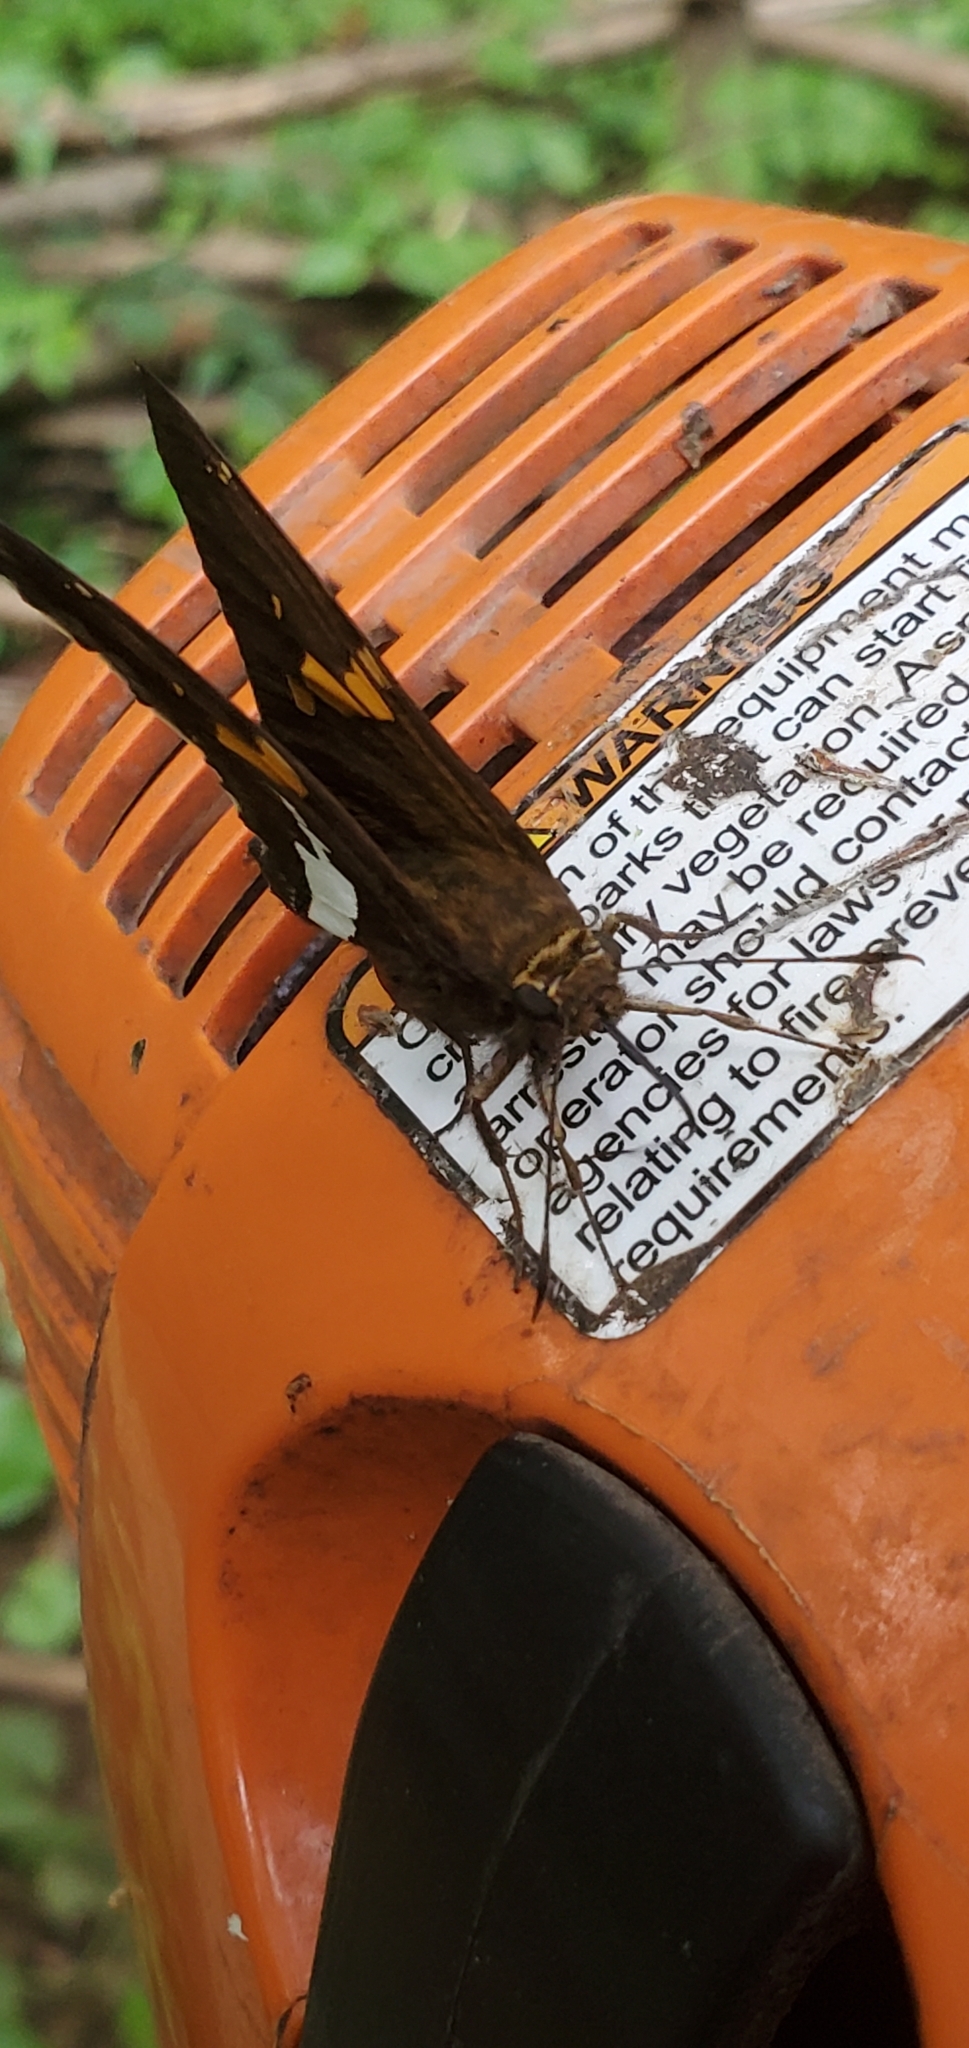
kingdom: Animalia
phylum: Arthropoda
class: Insecta
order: Lepidoptera
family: Hesperiidae
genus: Epargyreus
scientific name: Epargyreus clarus
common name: Silver-spotted skipper
